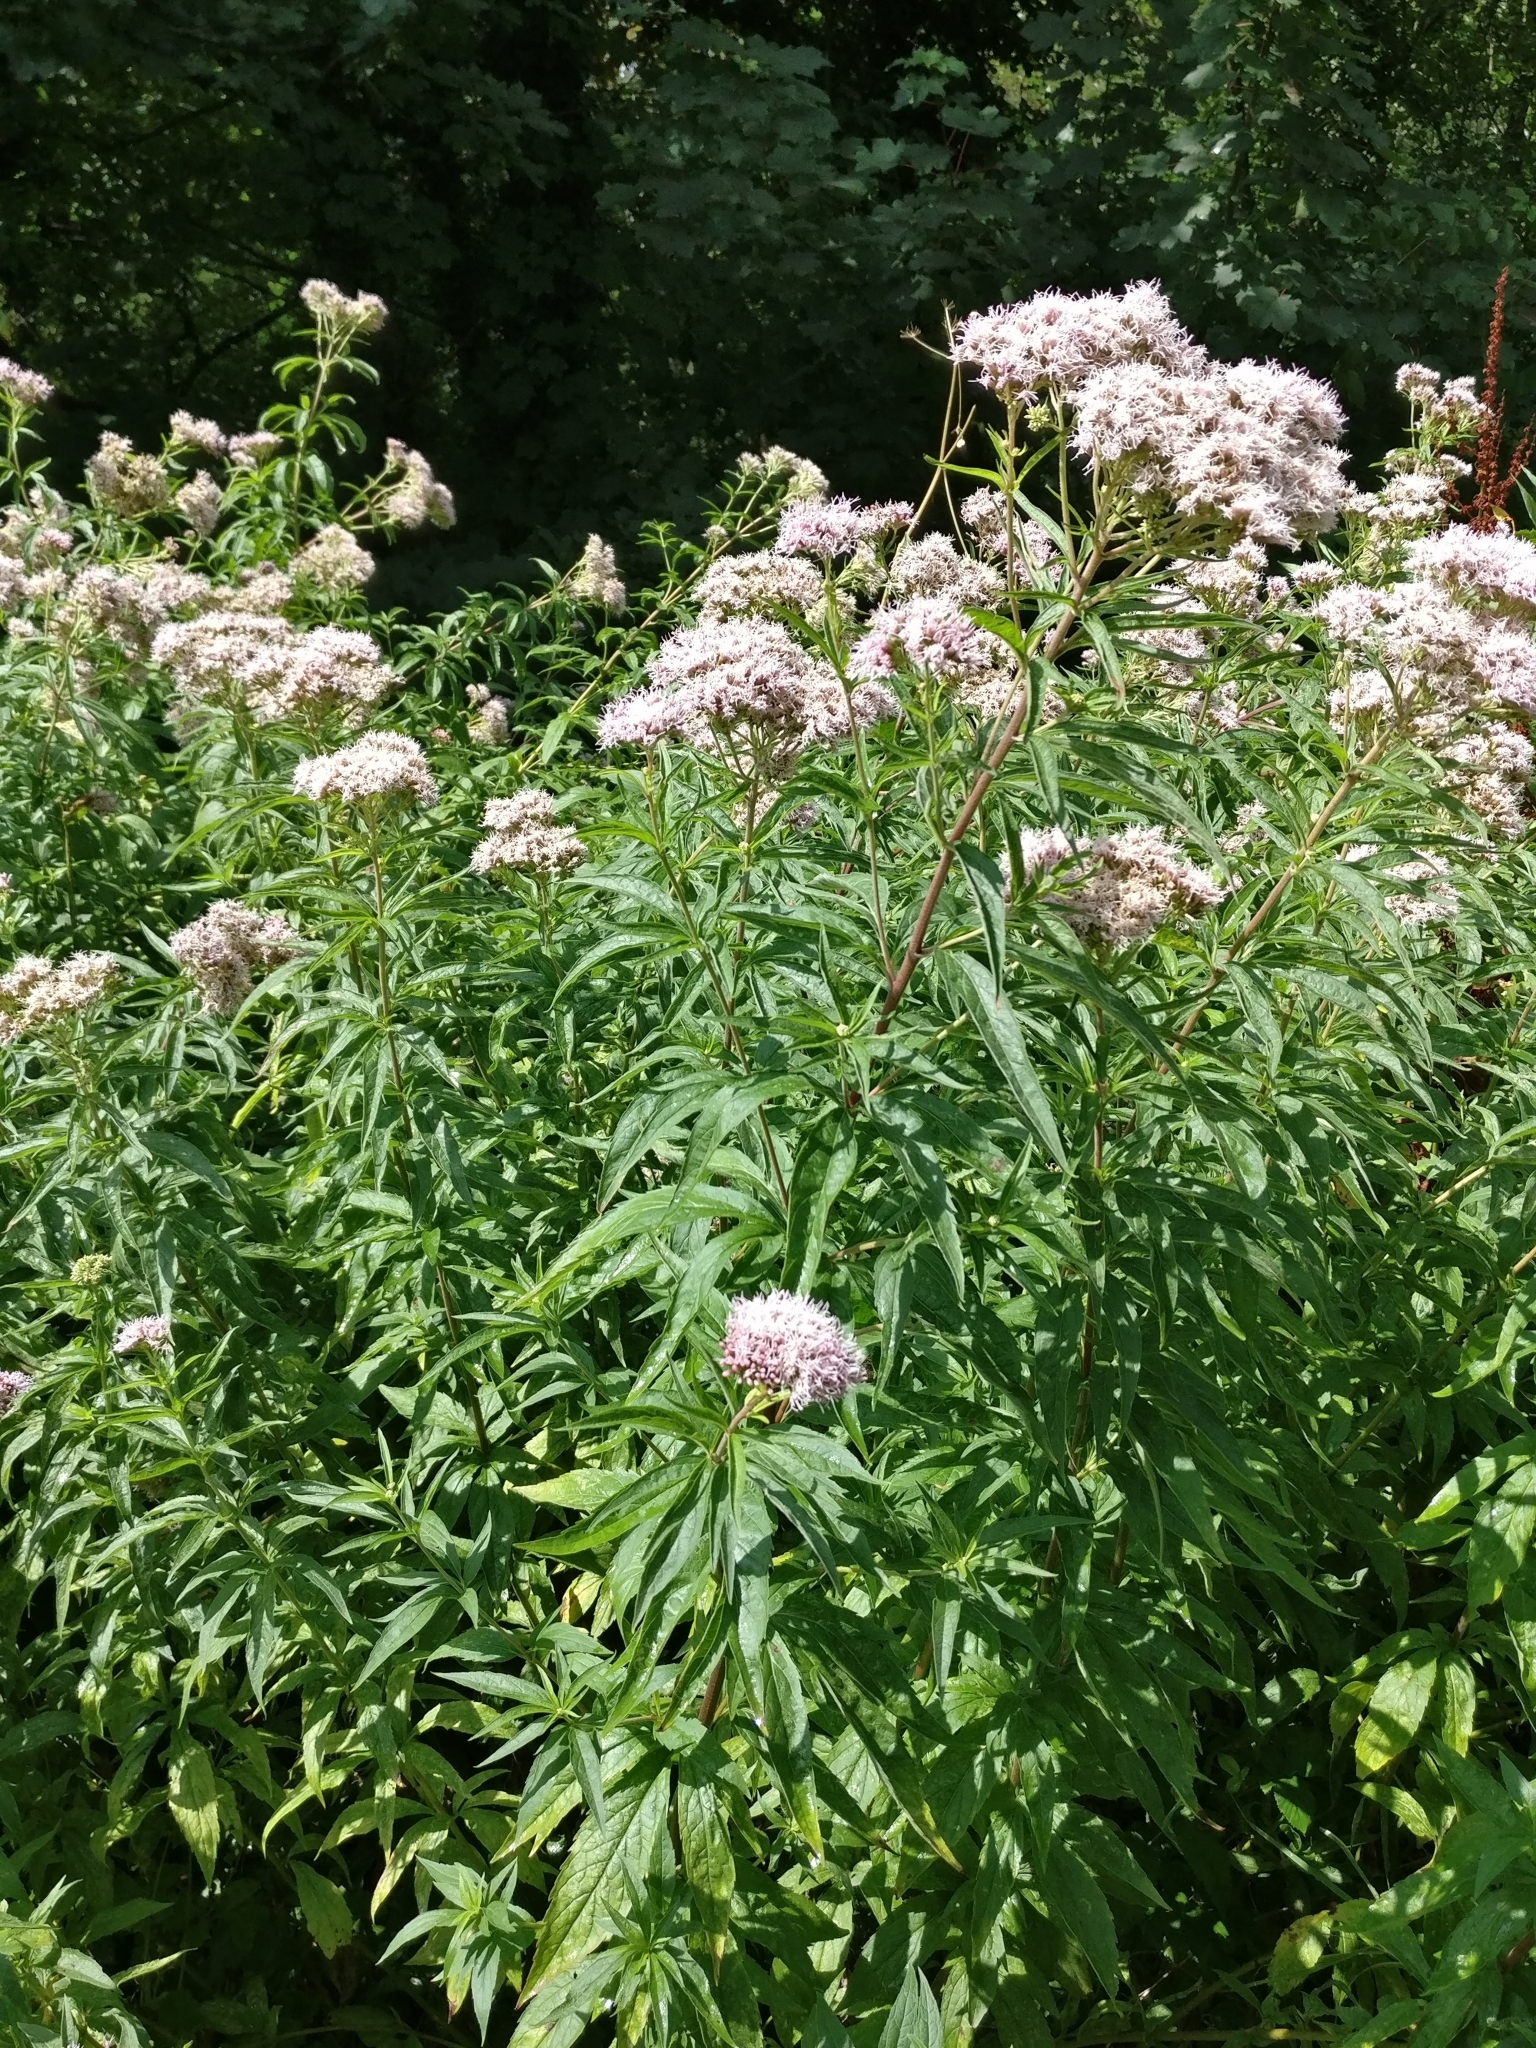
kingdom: Plantae
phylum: Tracheophyta
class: Magnoliopsida
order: Asterales
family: Asteraceae
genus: Eupatorium
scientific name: Eupatorium cannabinum
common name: Hemp-agrimony
